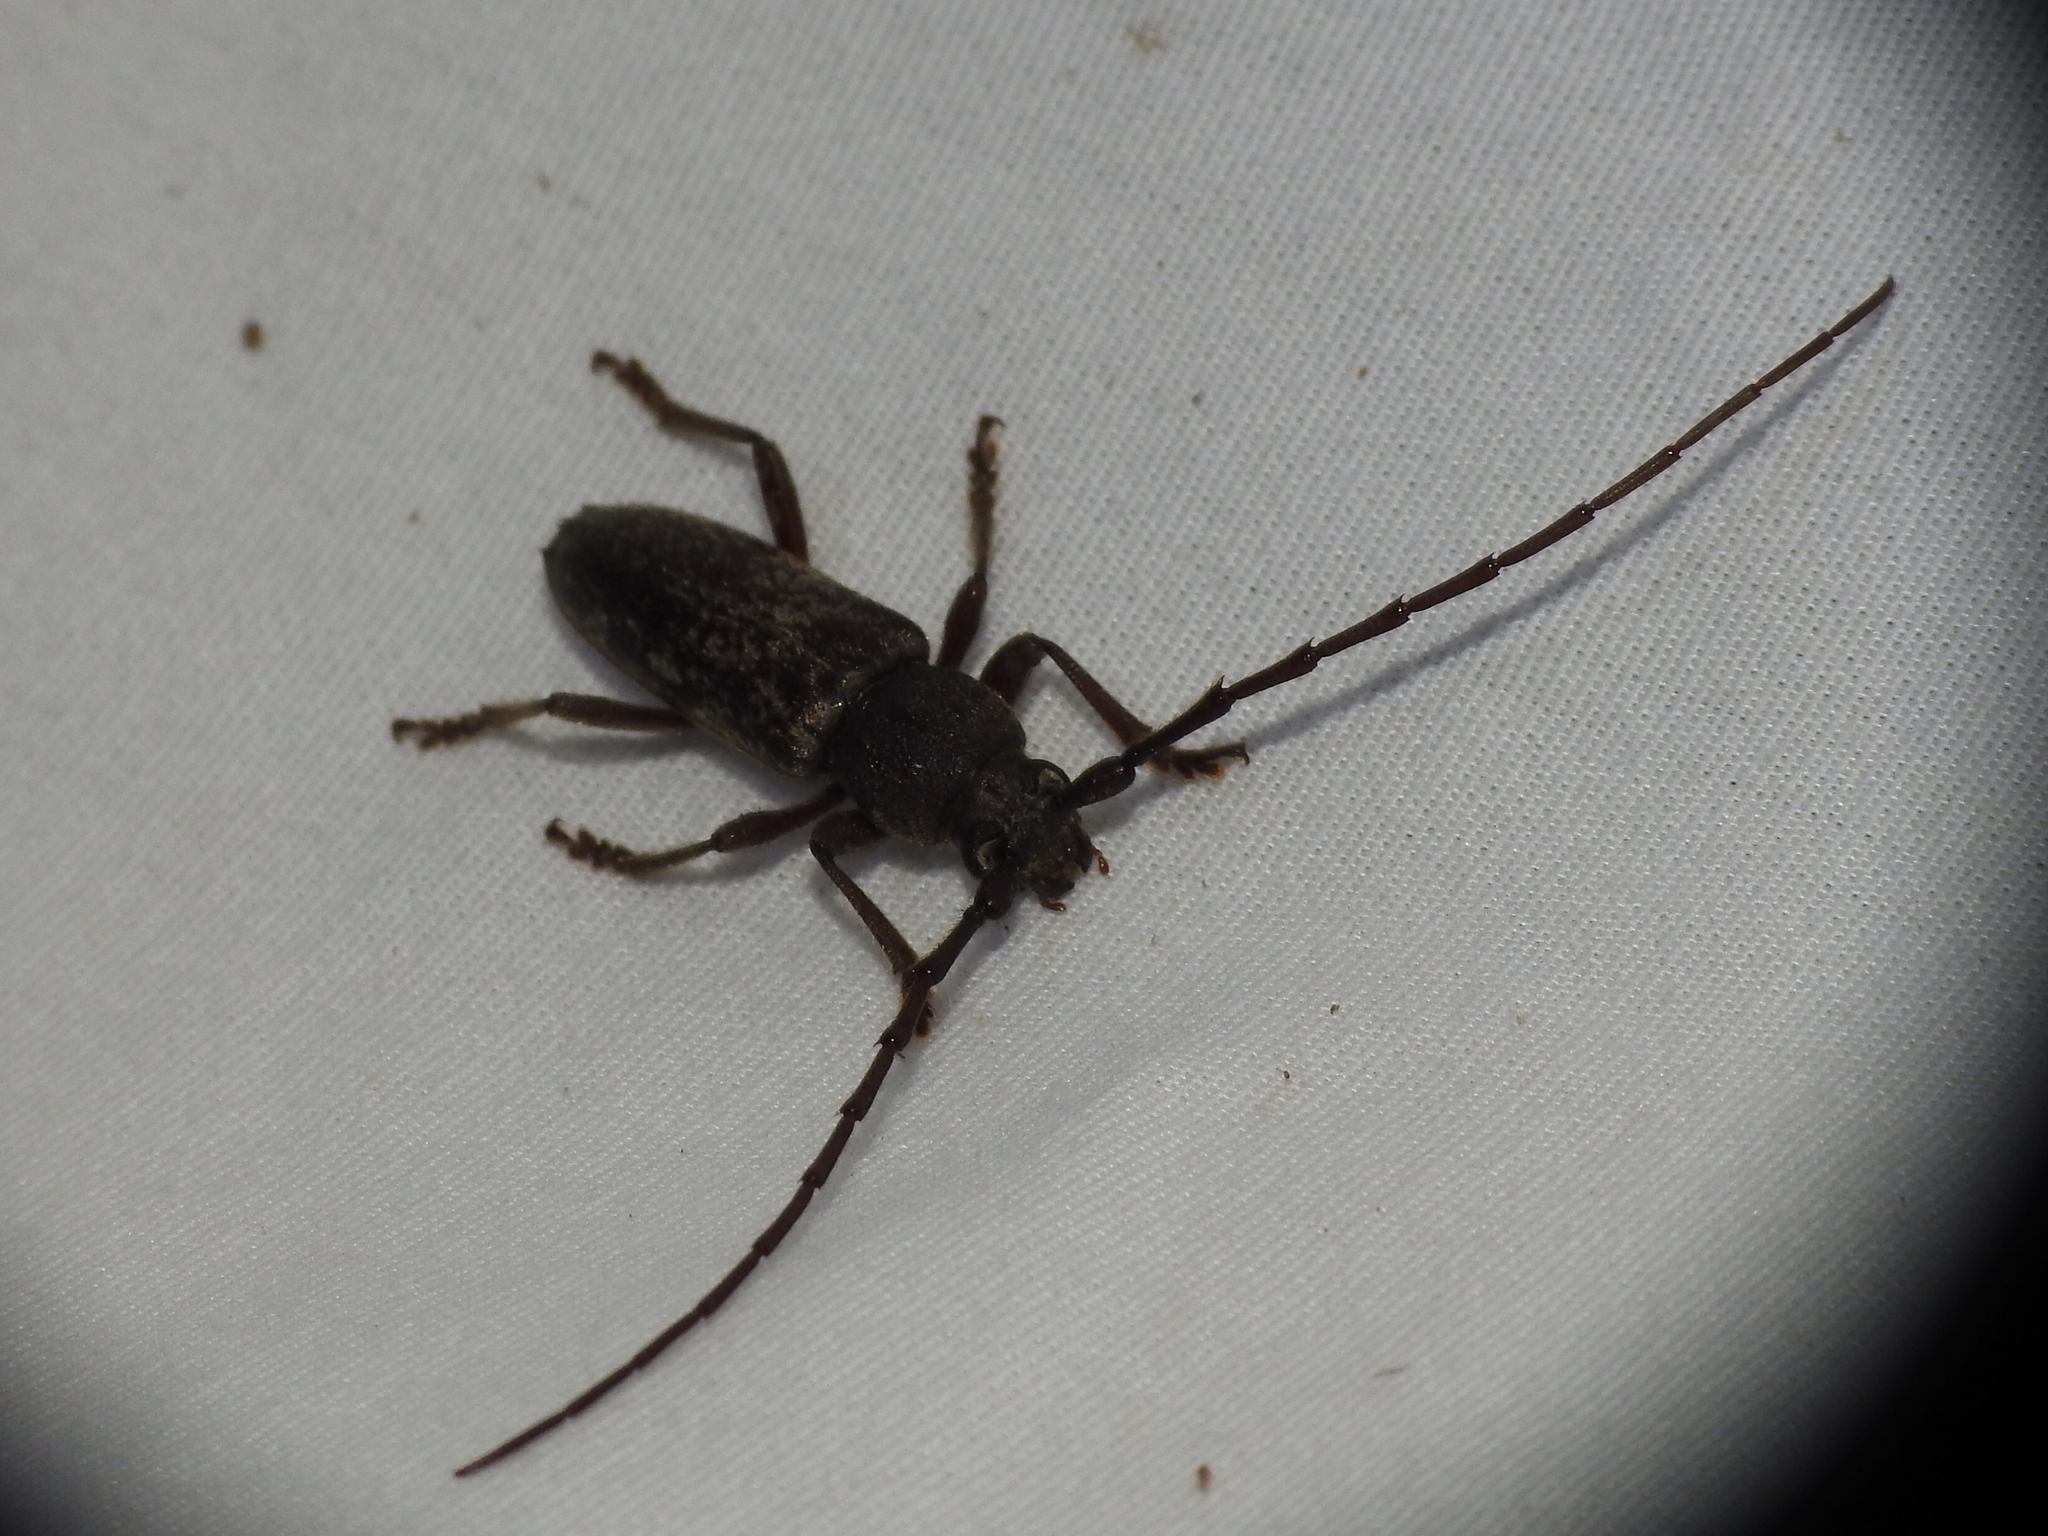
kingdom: Animalia
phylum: Arthropoda
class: Insecta
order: Coleoptera
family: Cerambycidae
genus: Enaphalodes
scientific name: Enaphalodes atomarius
